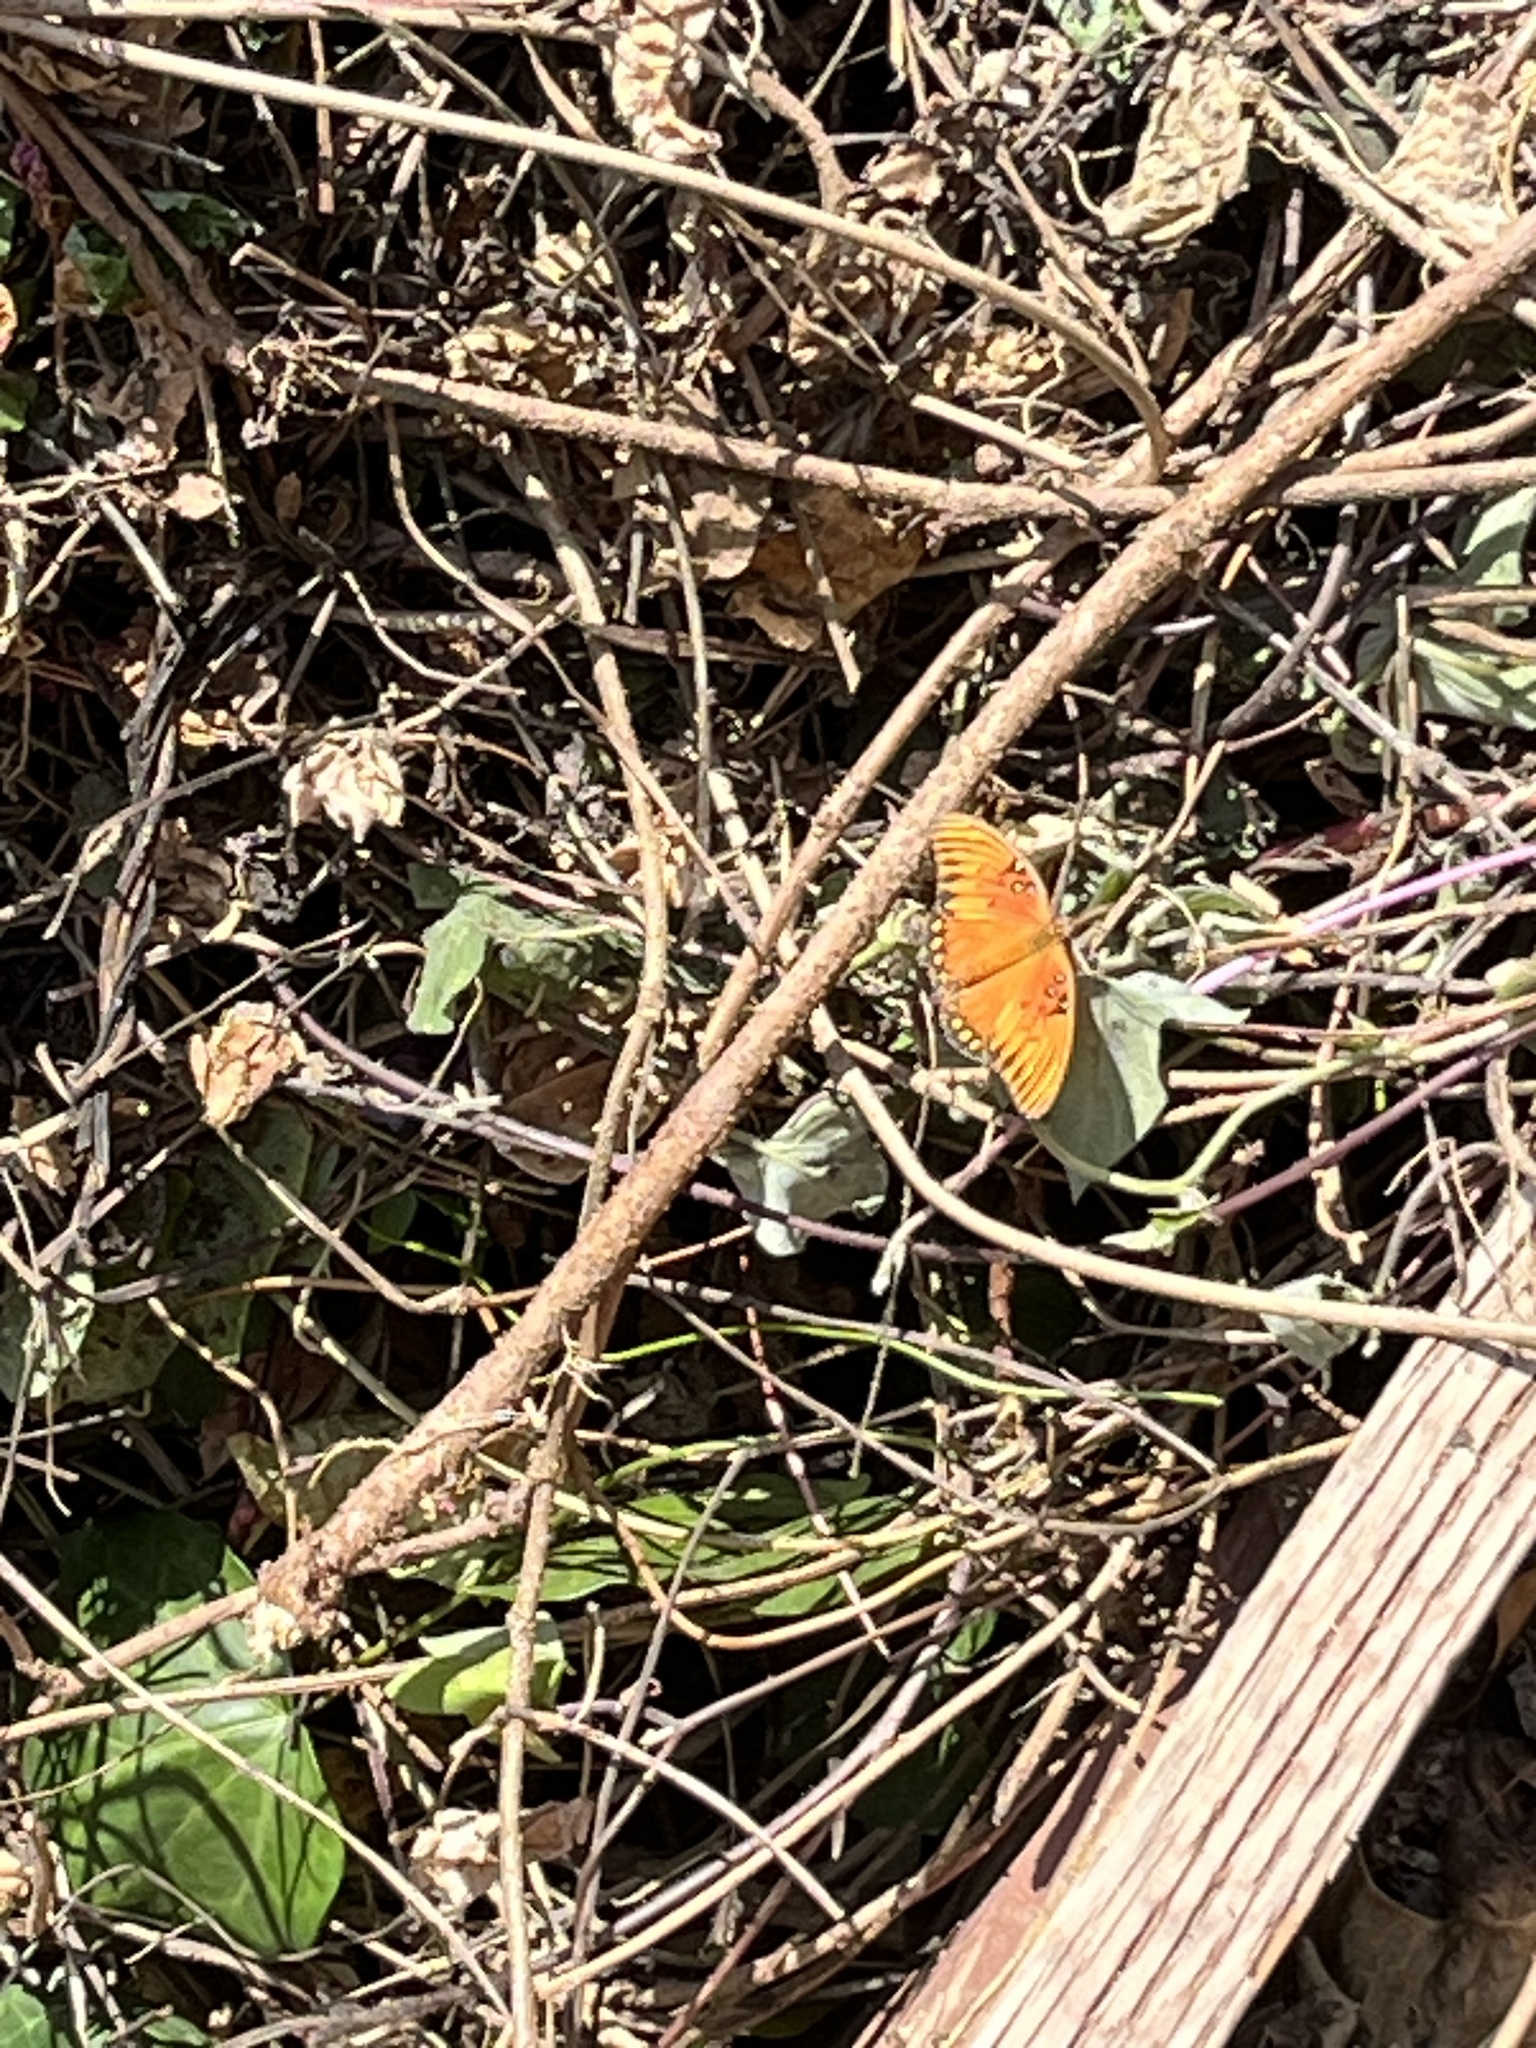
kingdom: Animalia
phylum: Arthropoda
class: Insecta
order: Lepidoptera
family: Nymphalidae
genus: Dione
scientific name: Dione vanillae
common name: Gulf fritillary
